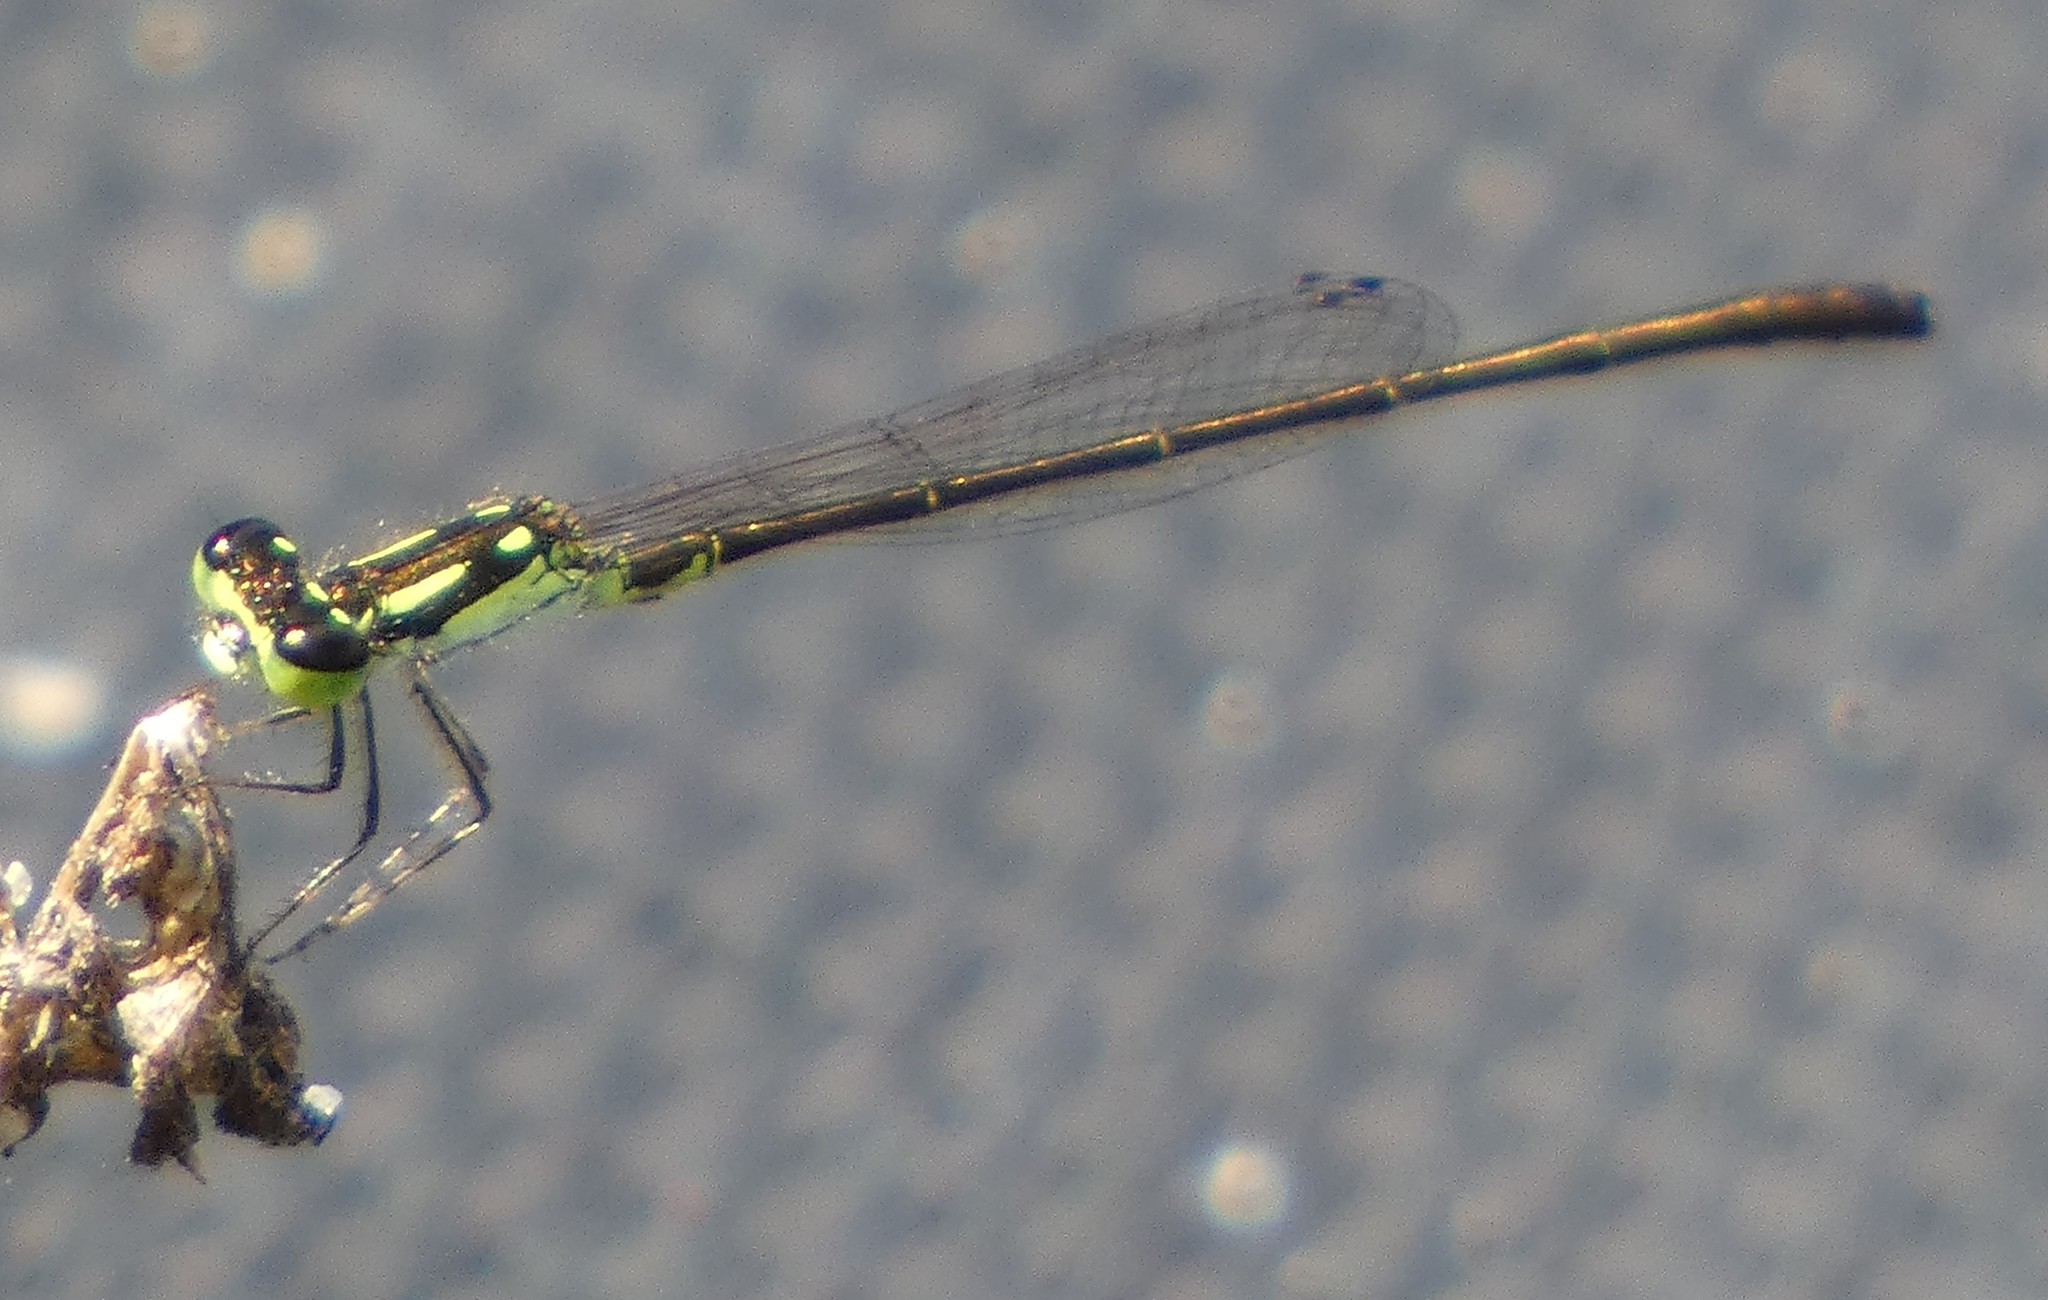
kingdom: Animalia
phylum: Arthropoda
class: Insecta
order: Odonata
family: Coenagrionidae
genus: Ischnura
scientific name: Ischnura posita
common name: Fragile forktail
